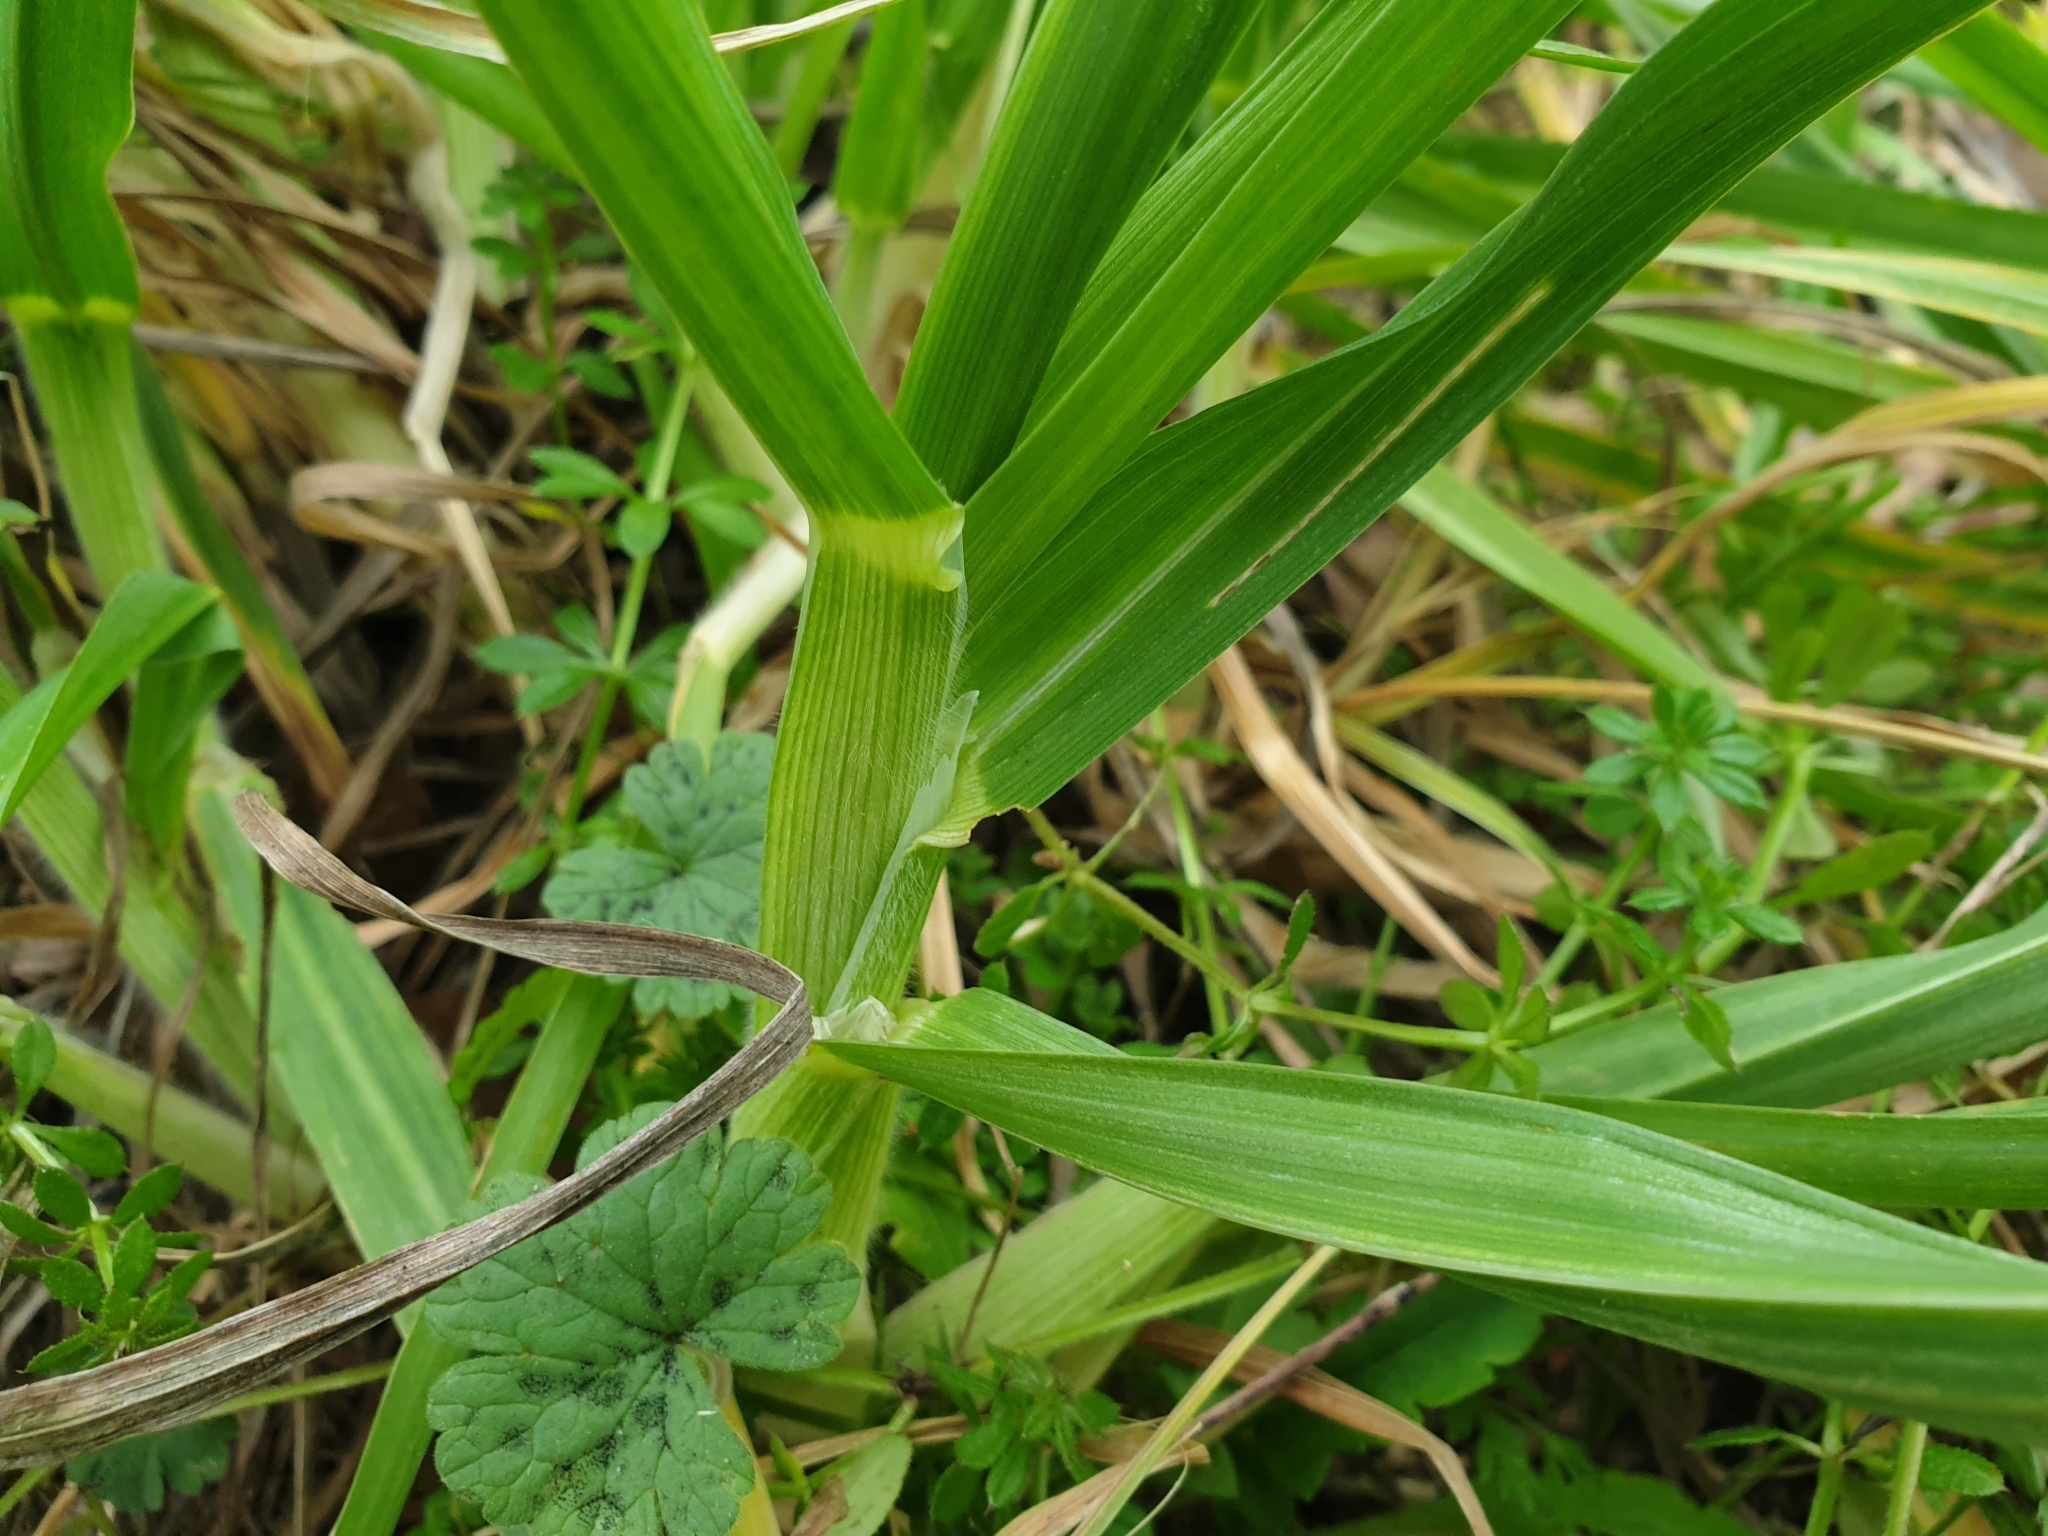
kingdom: Plantae
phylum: Tracheophyta
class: Liliopsida
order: Poales
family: Poaceae
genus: Dactylis
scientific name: Dactylis glomerata
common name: Orchardgrass
